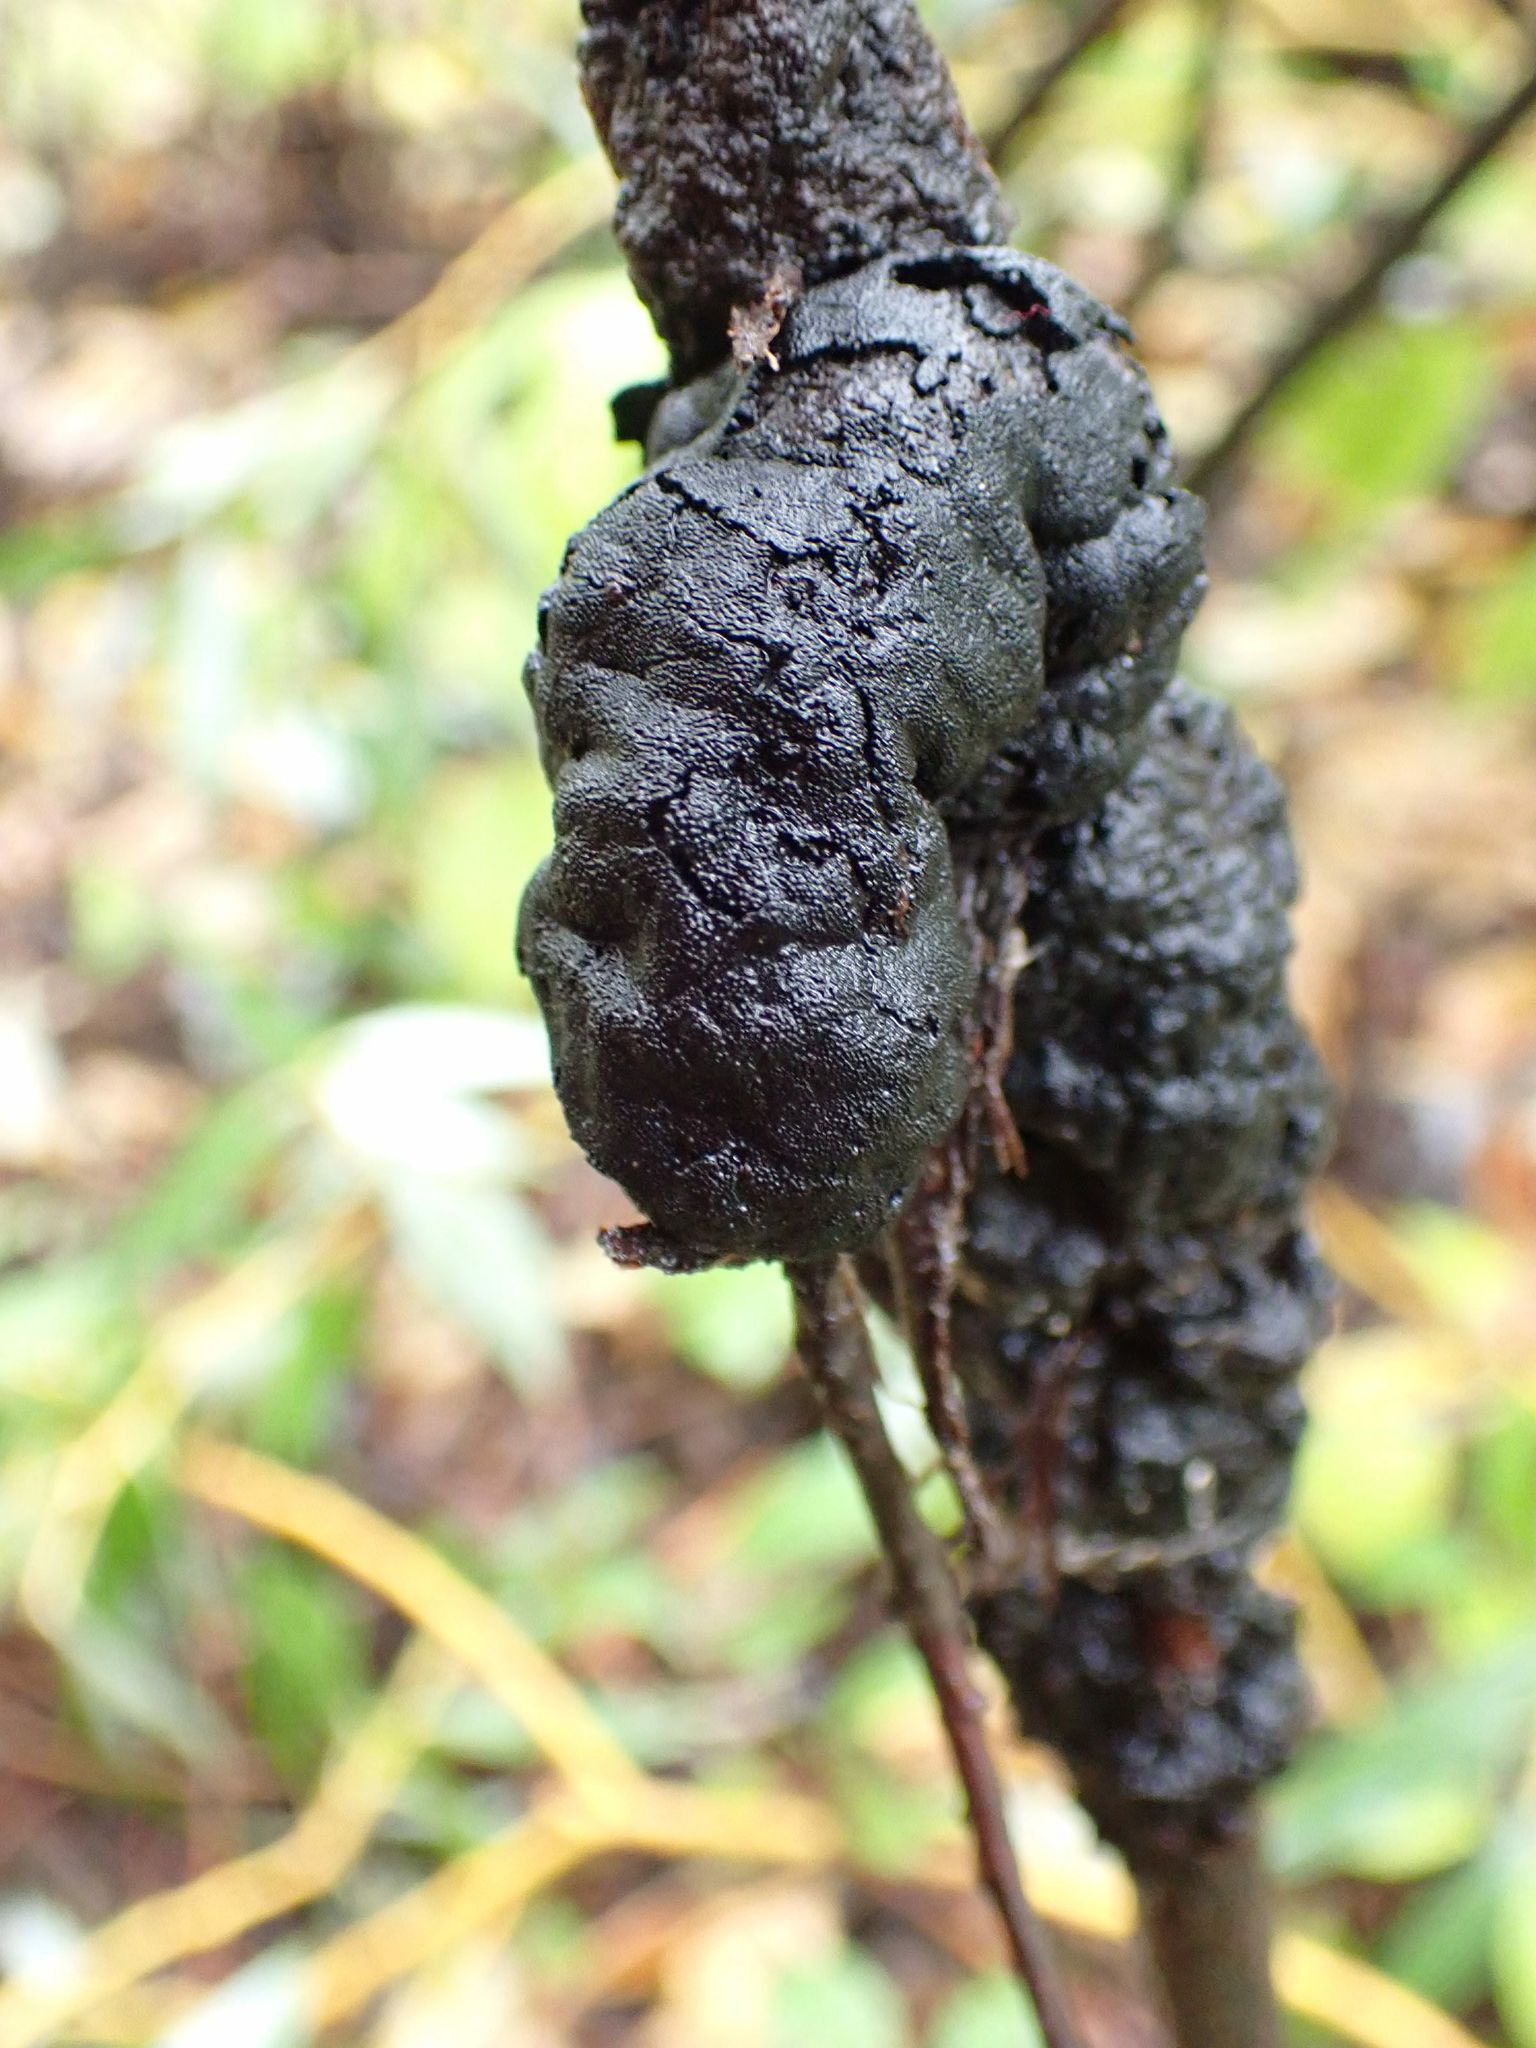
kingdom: Fungi
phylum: Ascomycota
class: Dothideomycetes
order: Venturiales
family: Venturiaceae
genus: Apiosporina
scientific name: Apiosporina morbosa
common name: Black knot
